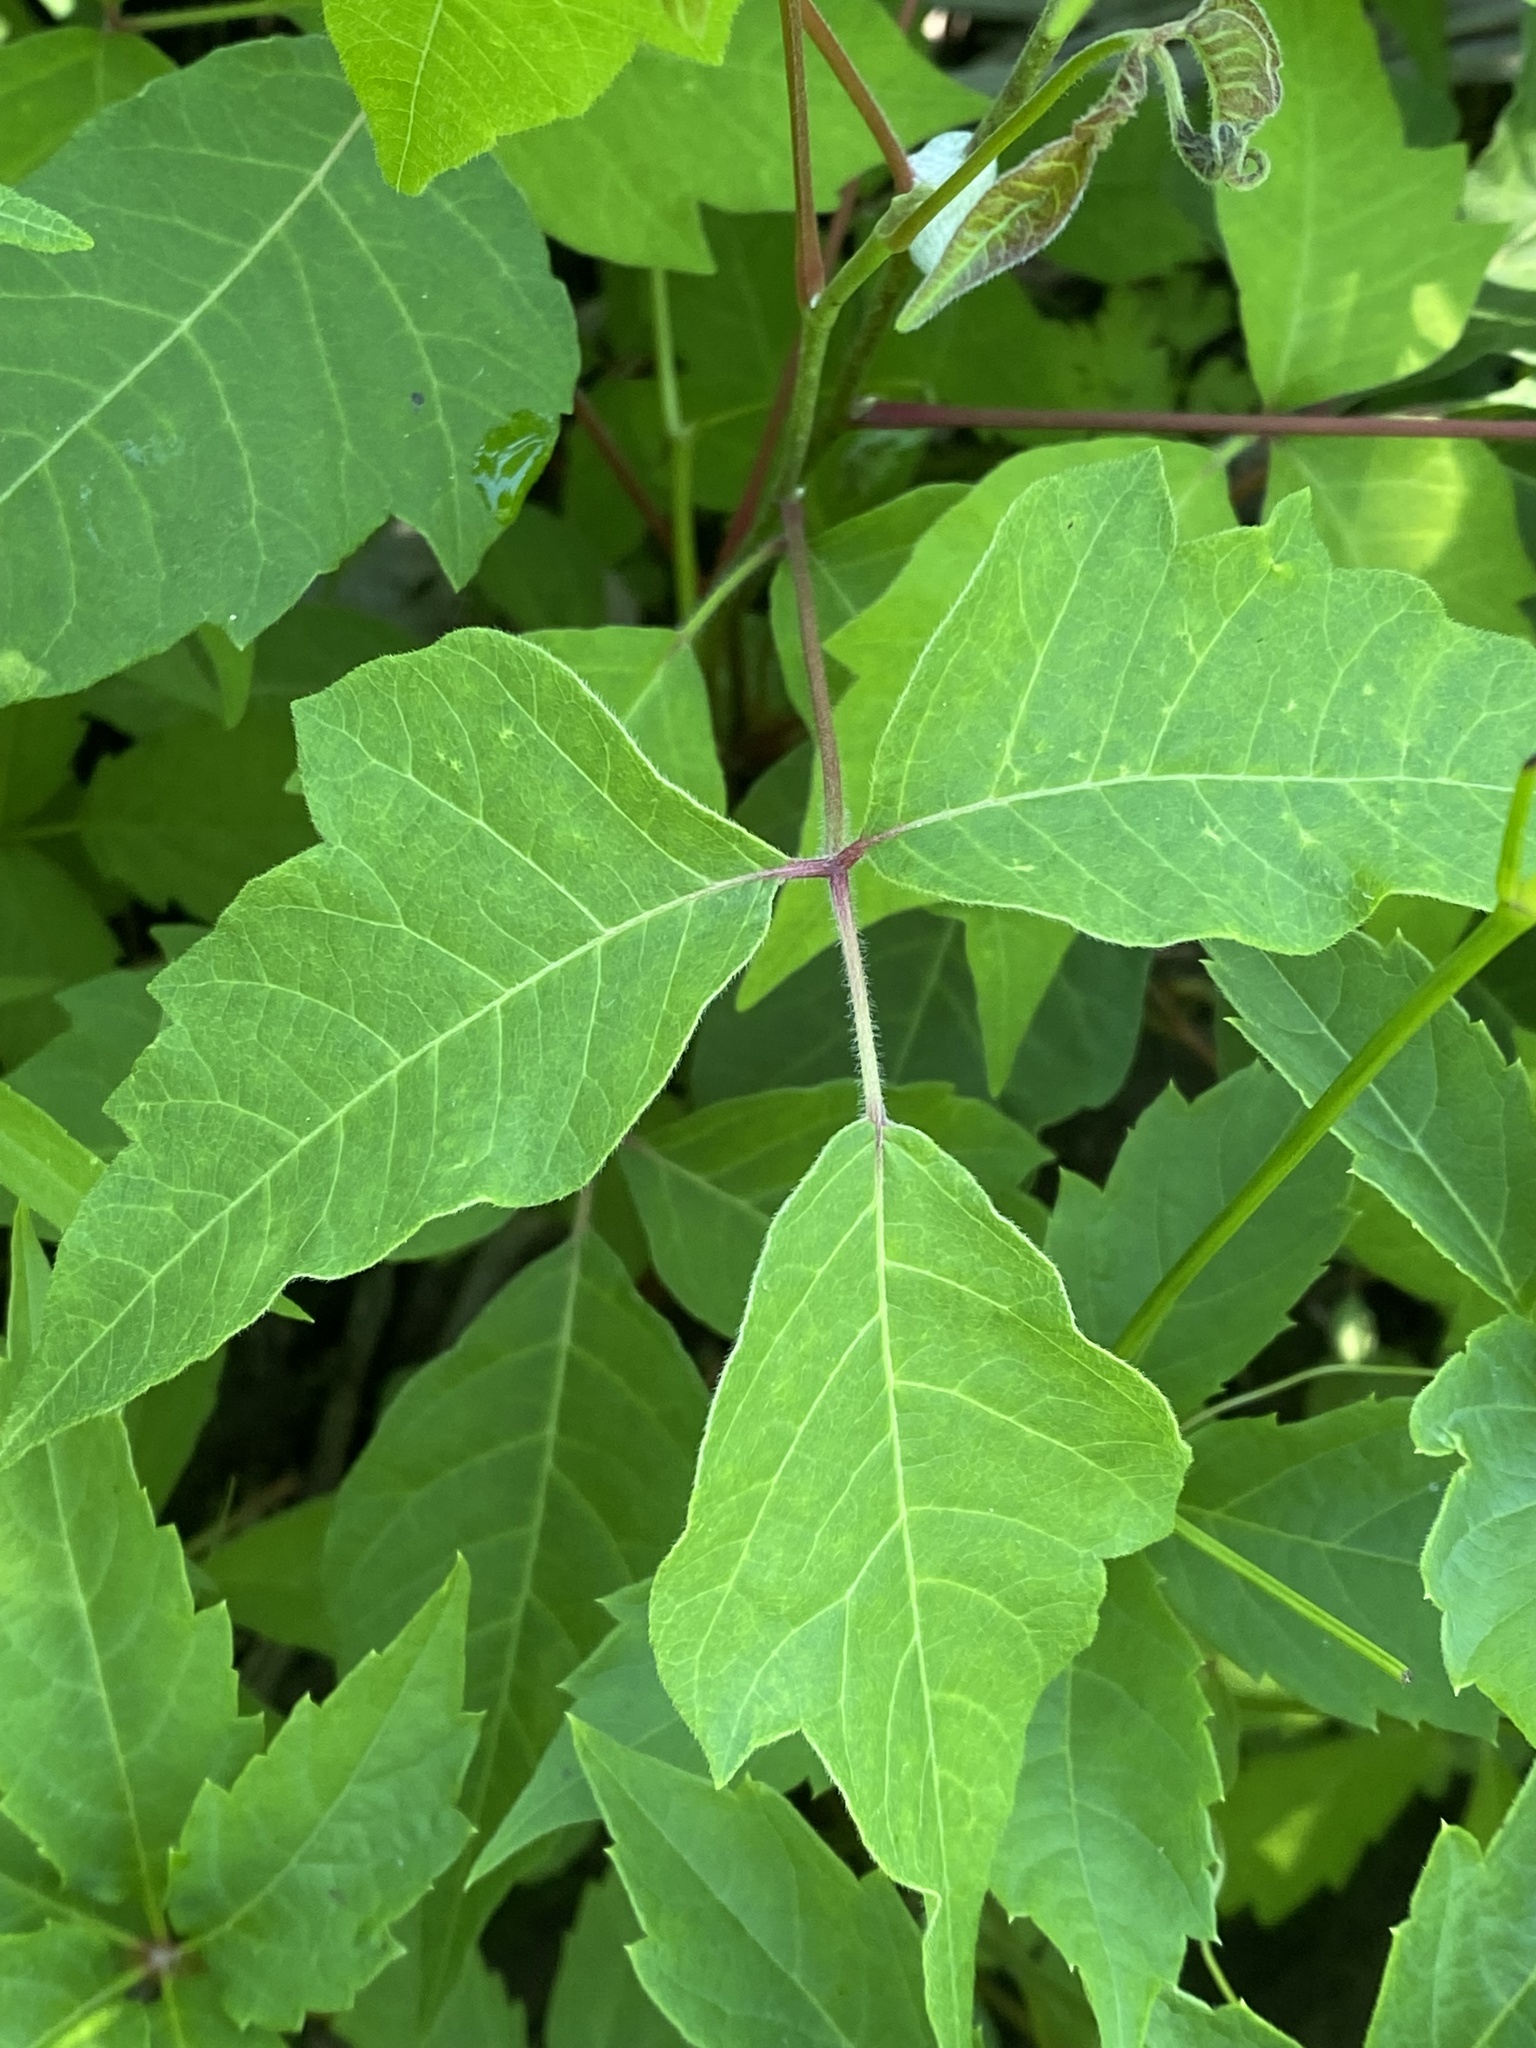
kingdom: Plantae
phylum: Tracheophyta
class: Magnoliopsida
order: Sapindales
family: Anacardiaceae
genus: Toxicodendron
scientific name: Toxicodendron radicans
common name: Poison ivy
